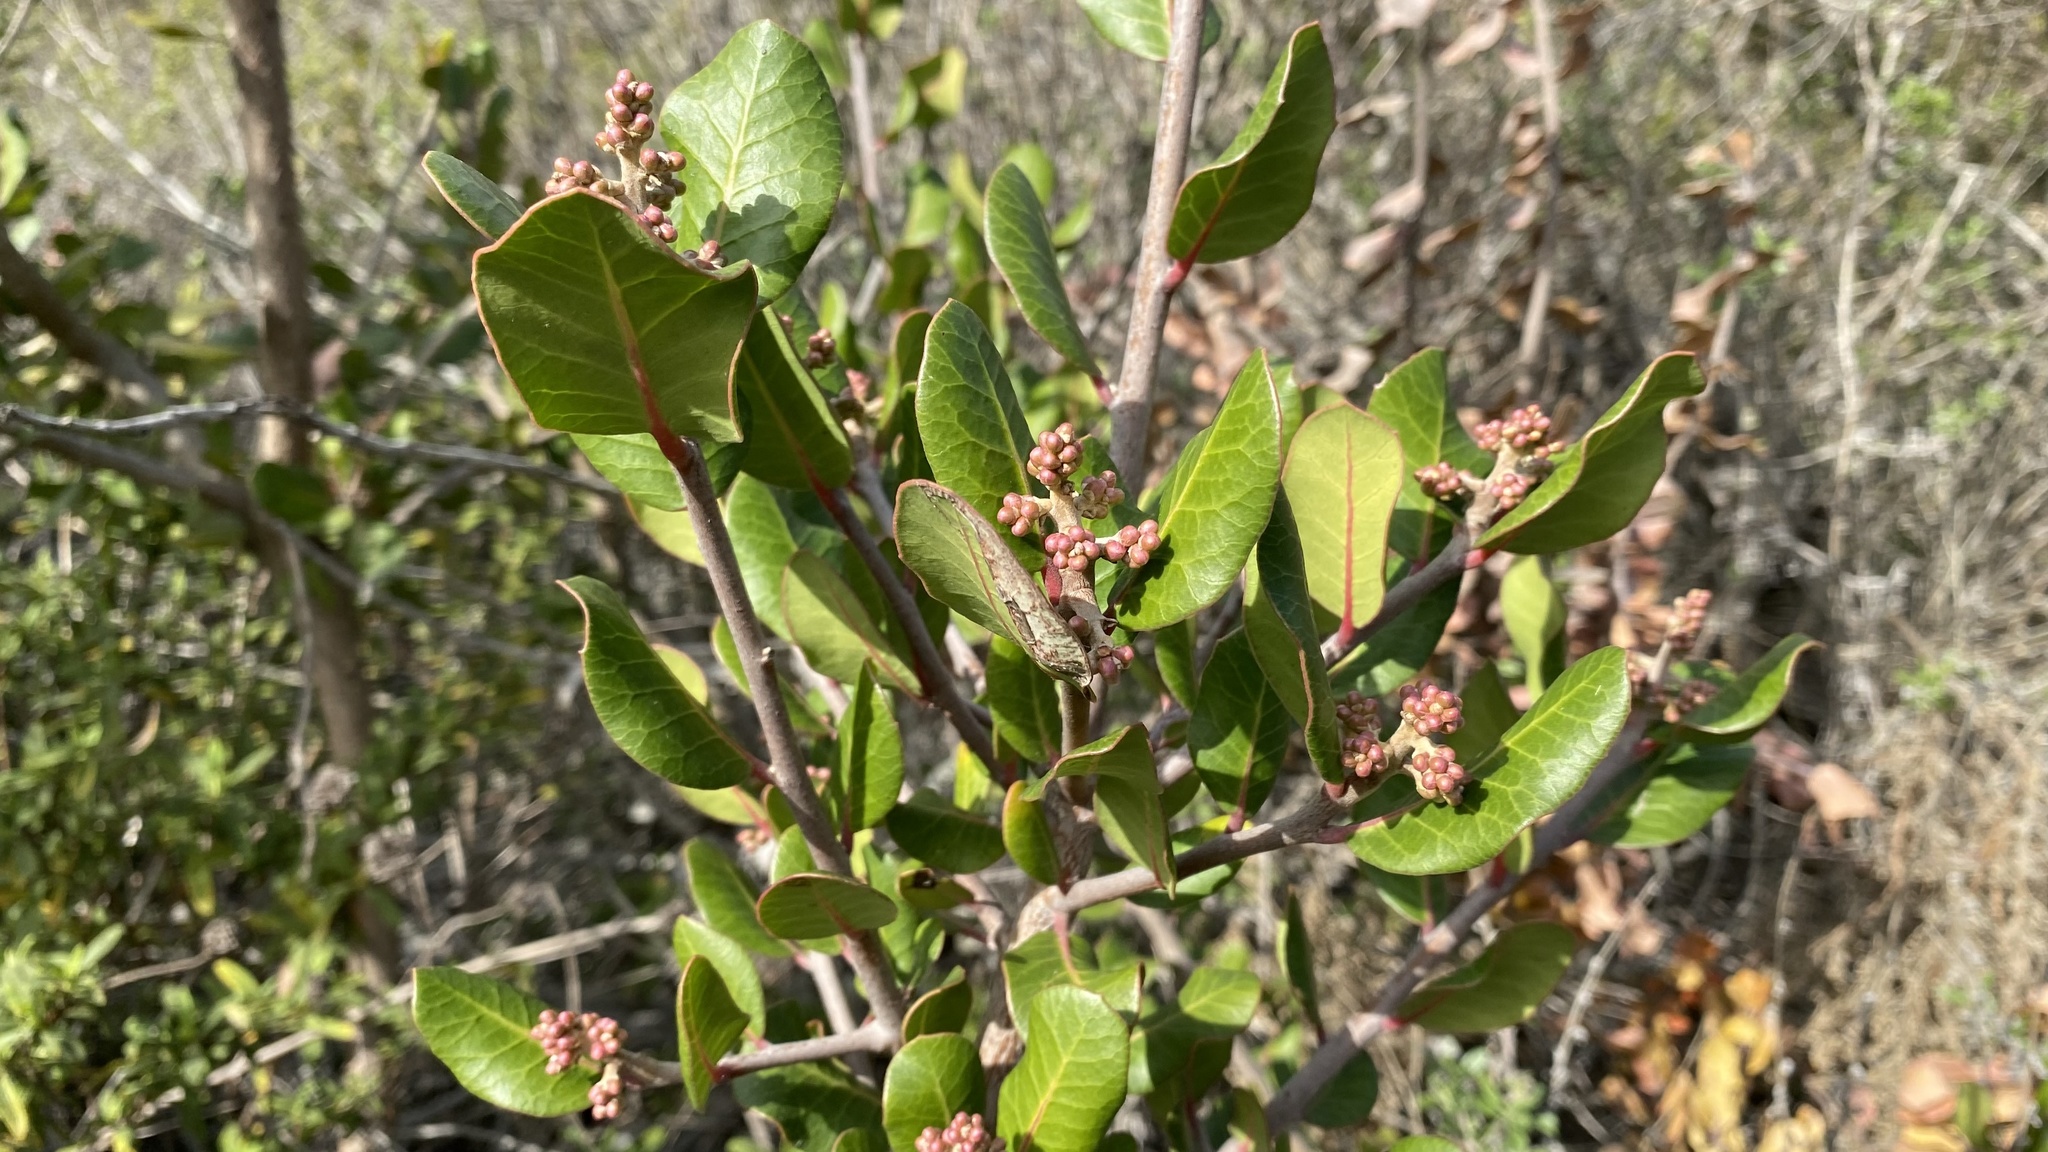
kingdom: Plantae
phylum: Tracheophyta
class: Magnoliopsida
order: Sapindales
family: Anacardiaceae
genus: Rhus
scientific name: Rhus integrifolia
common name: Lemonade sumac
